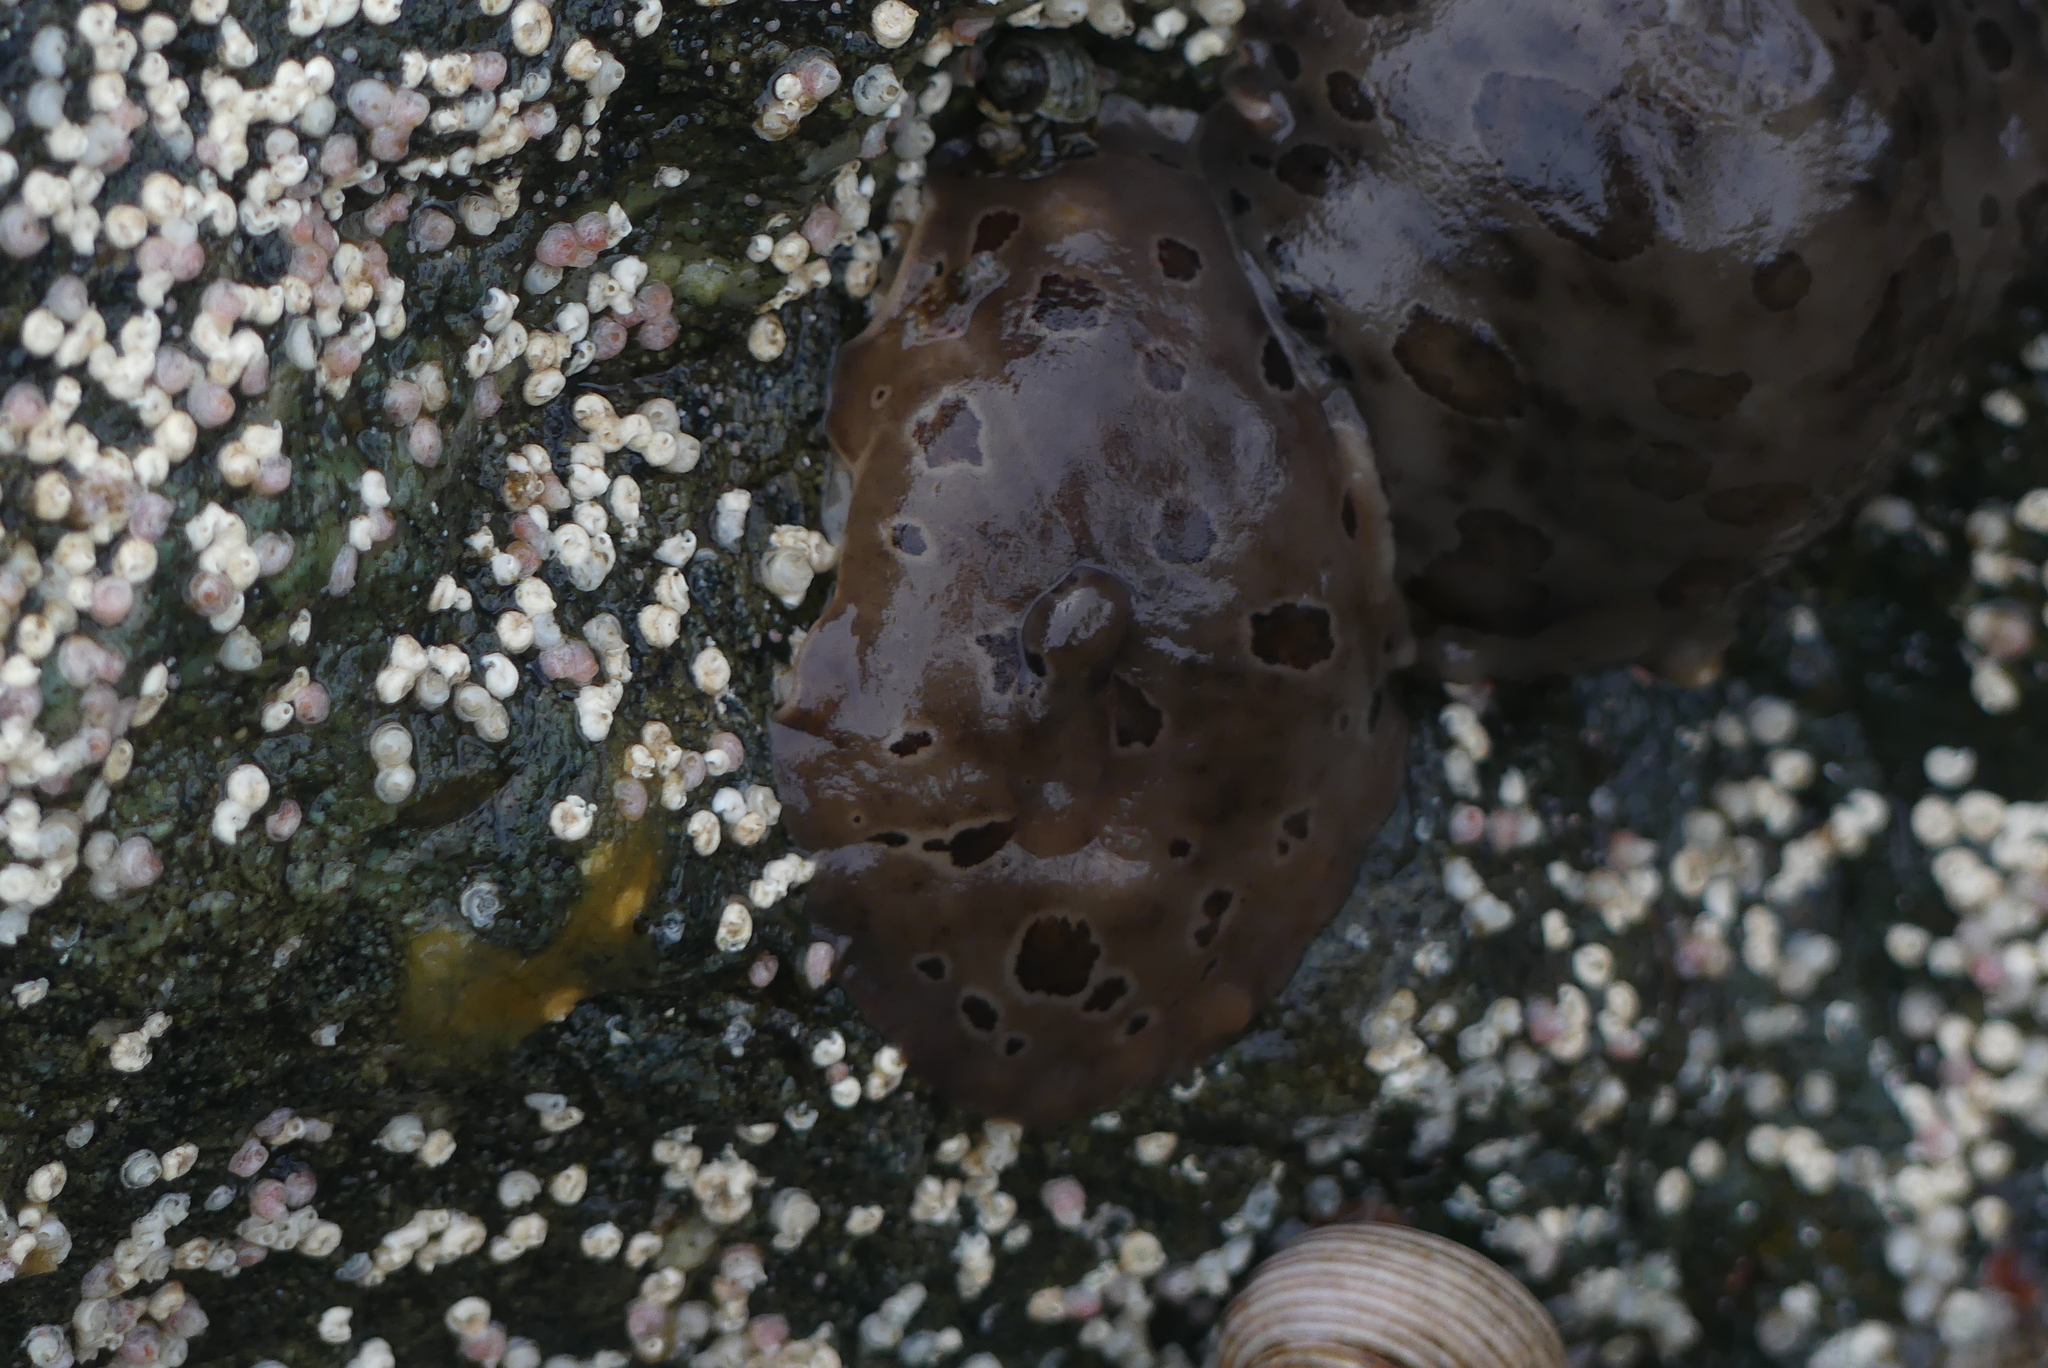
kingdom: Animalia
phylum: Mollusca
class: Gastropoda
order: Nudibranchia
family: Discodorididae
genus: Diaulula
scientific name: Diaulula odonoghuei
